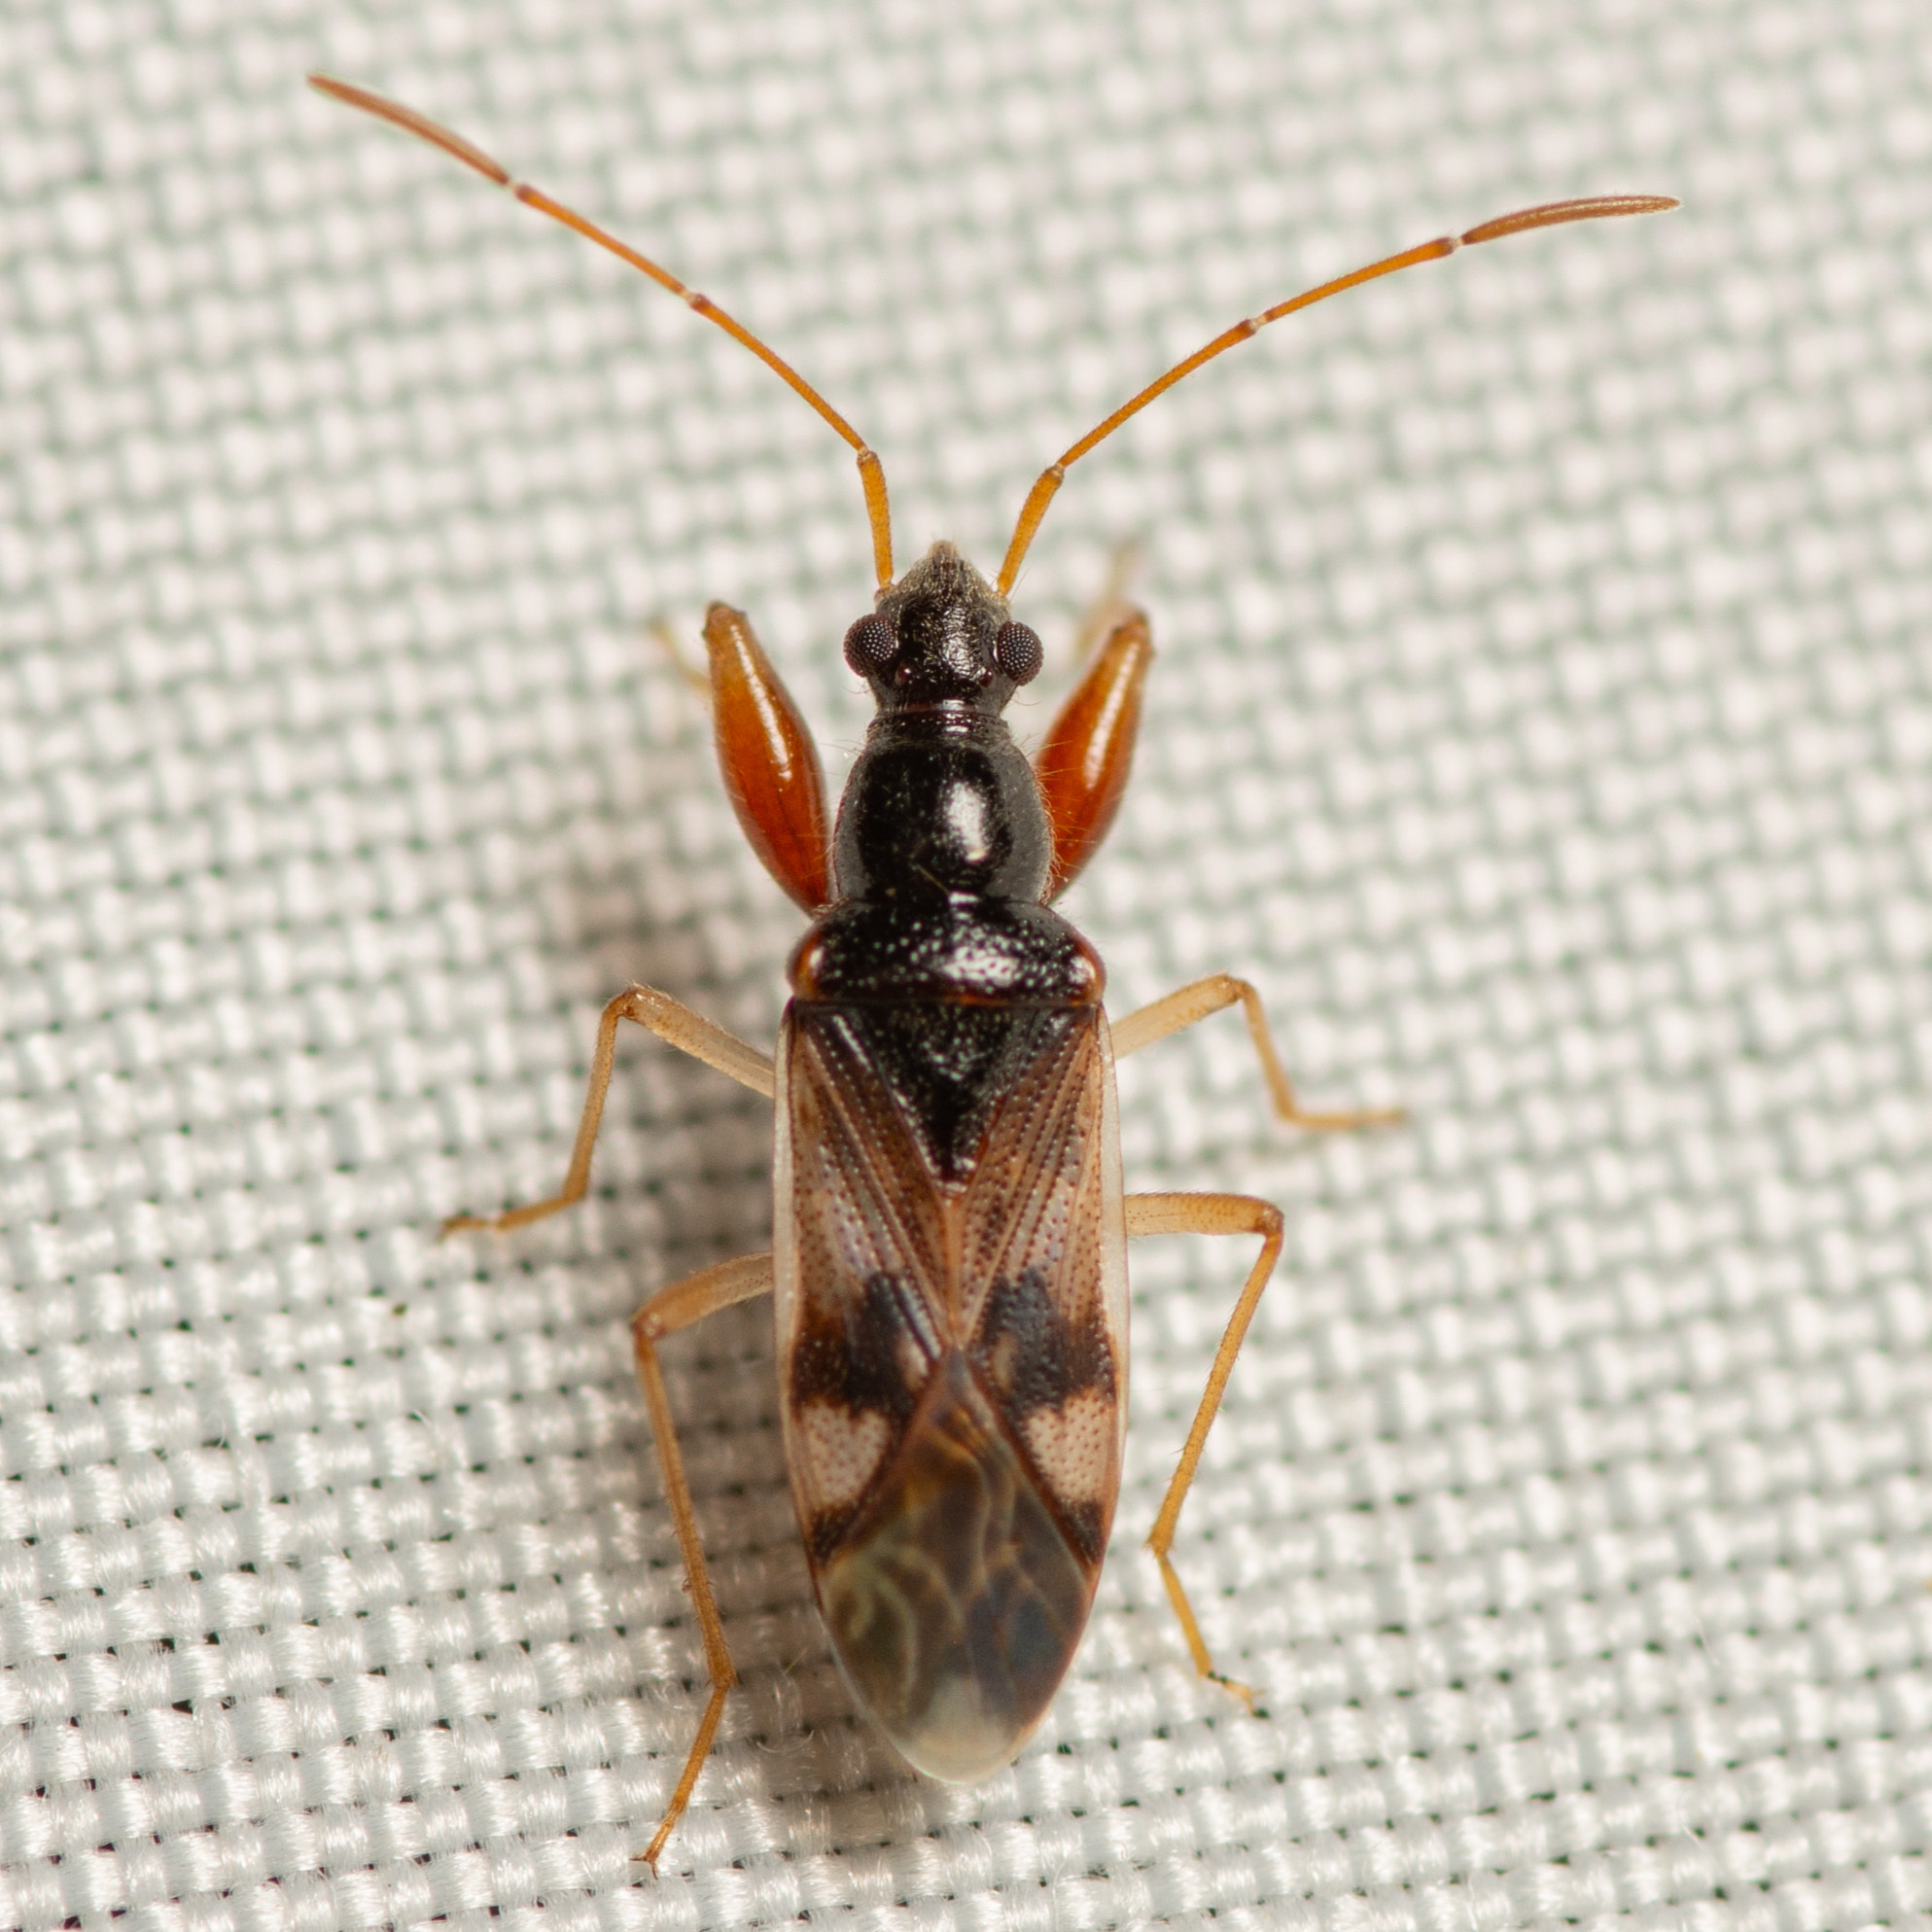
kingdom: Animalia
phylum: Arthropoda
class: Insecta
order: Hemiptera
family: Rhyparochromidae
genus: Pseudopamera
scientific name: Pseudopamera nitidula
